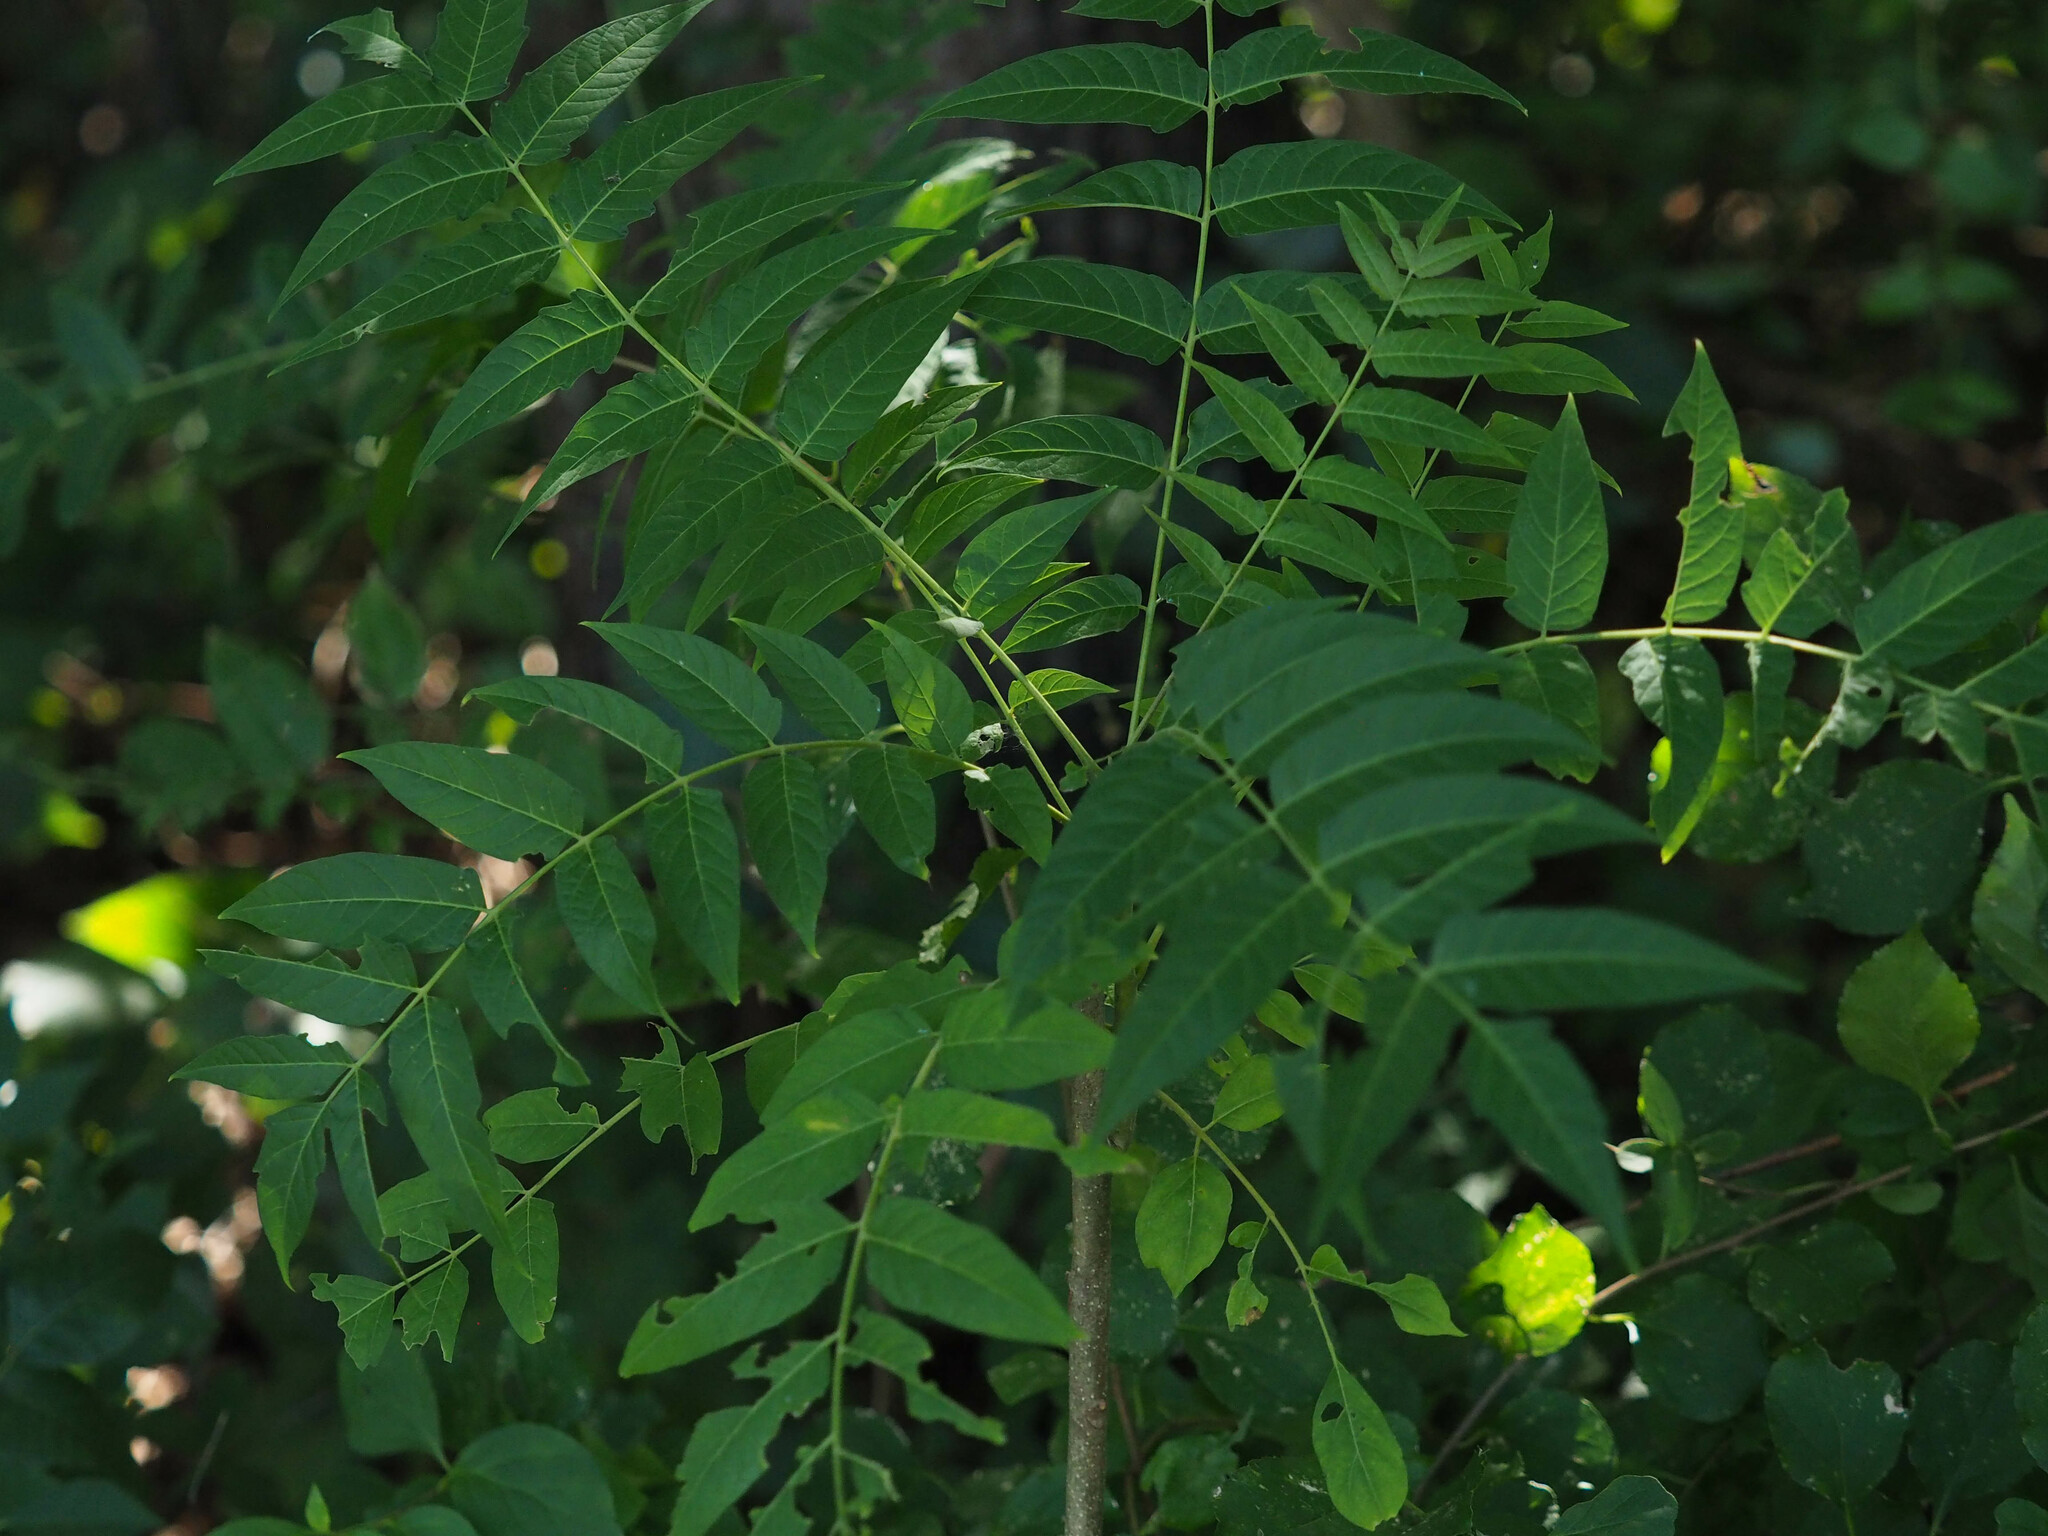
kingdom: Plantae
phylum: Tracheophyta
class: Magnoliopsida
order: Sapindales
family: Simaroubaceae
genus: Ailanthus
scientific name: Ailanthus altissima
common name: Tree-of-heaven
